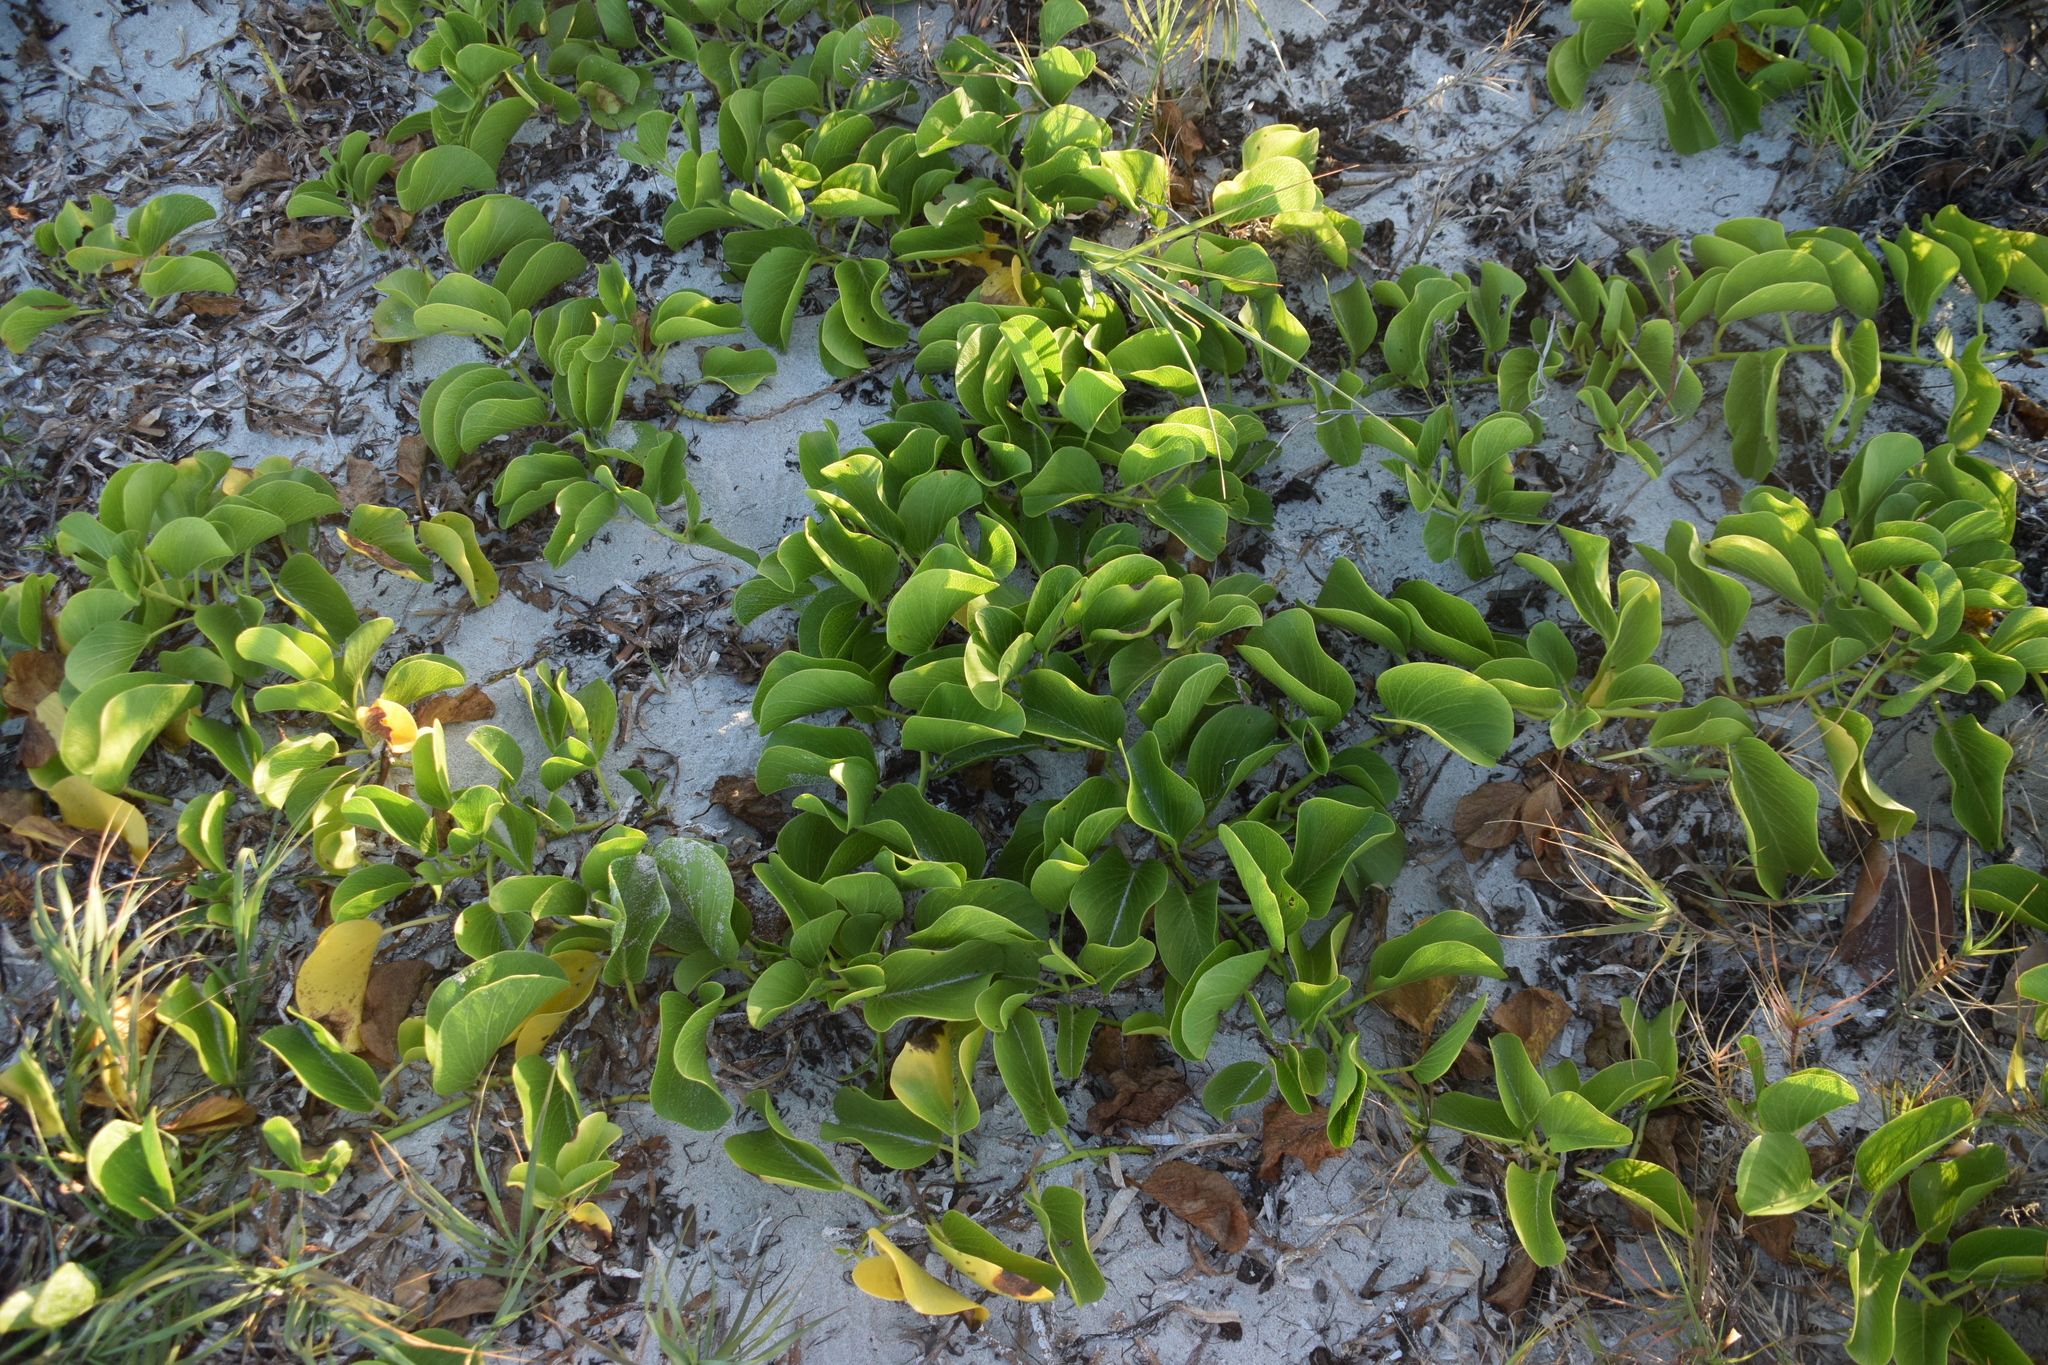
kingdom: Plantae
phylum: Tracheophyta
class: Magnoliopsida
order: Solanales
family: Convolvulaceae
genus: Ipomoea
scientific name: Ipomoea pes-caprae
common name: Beach morning glory
